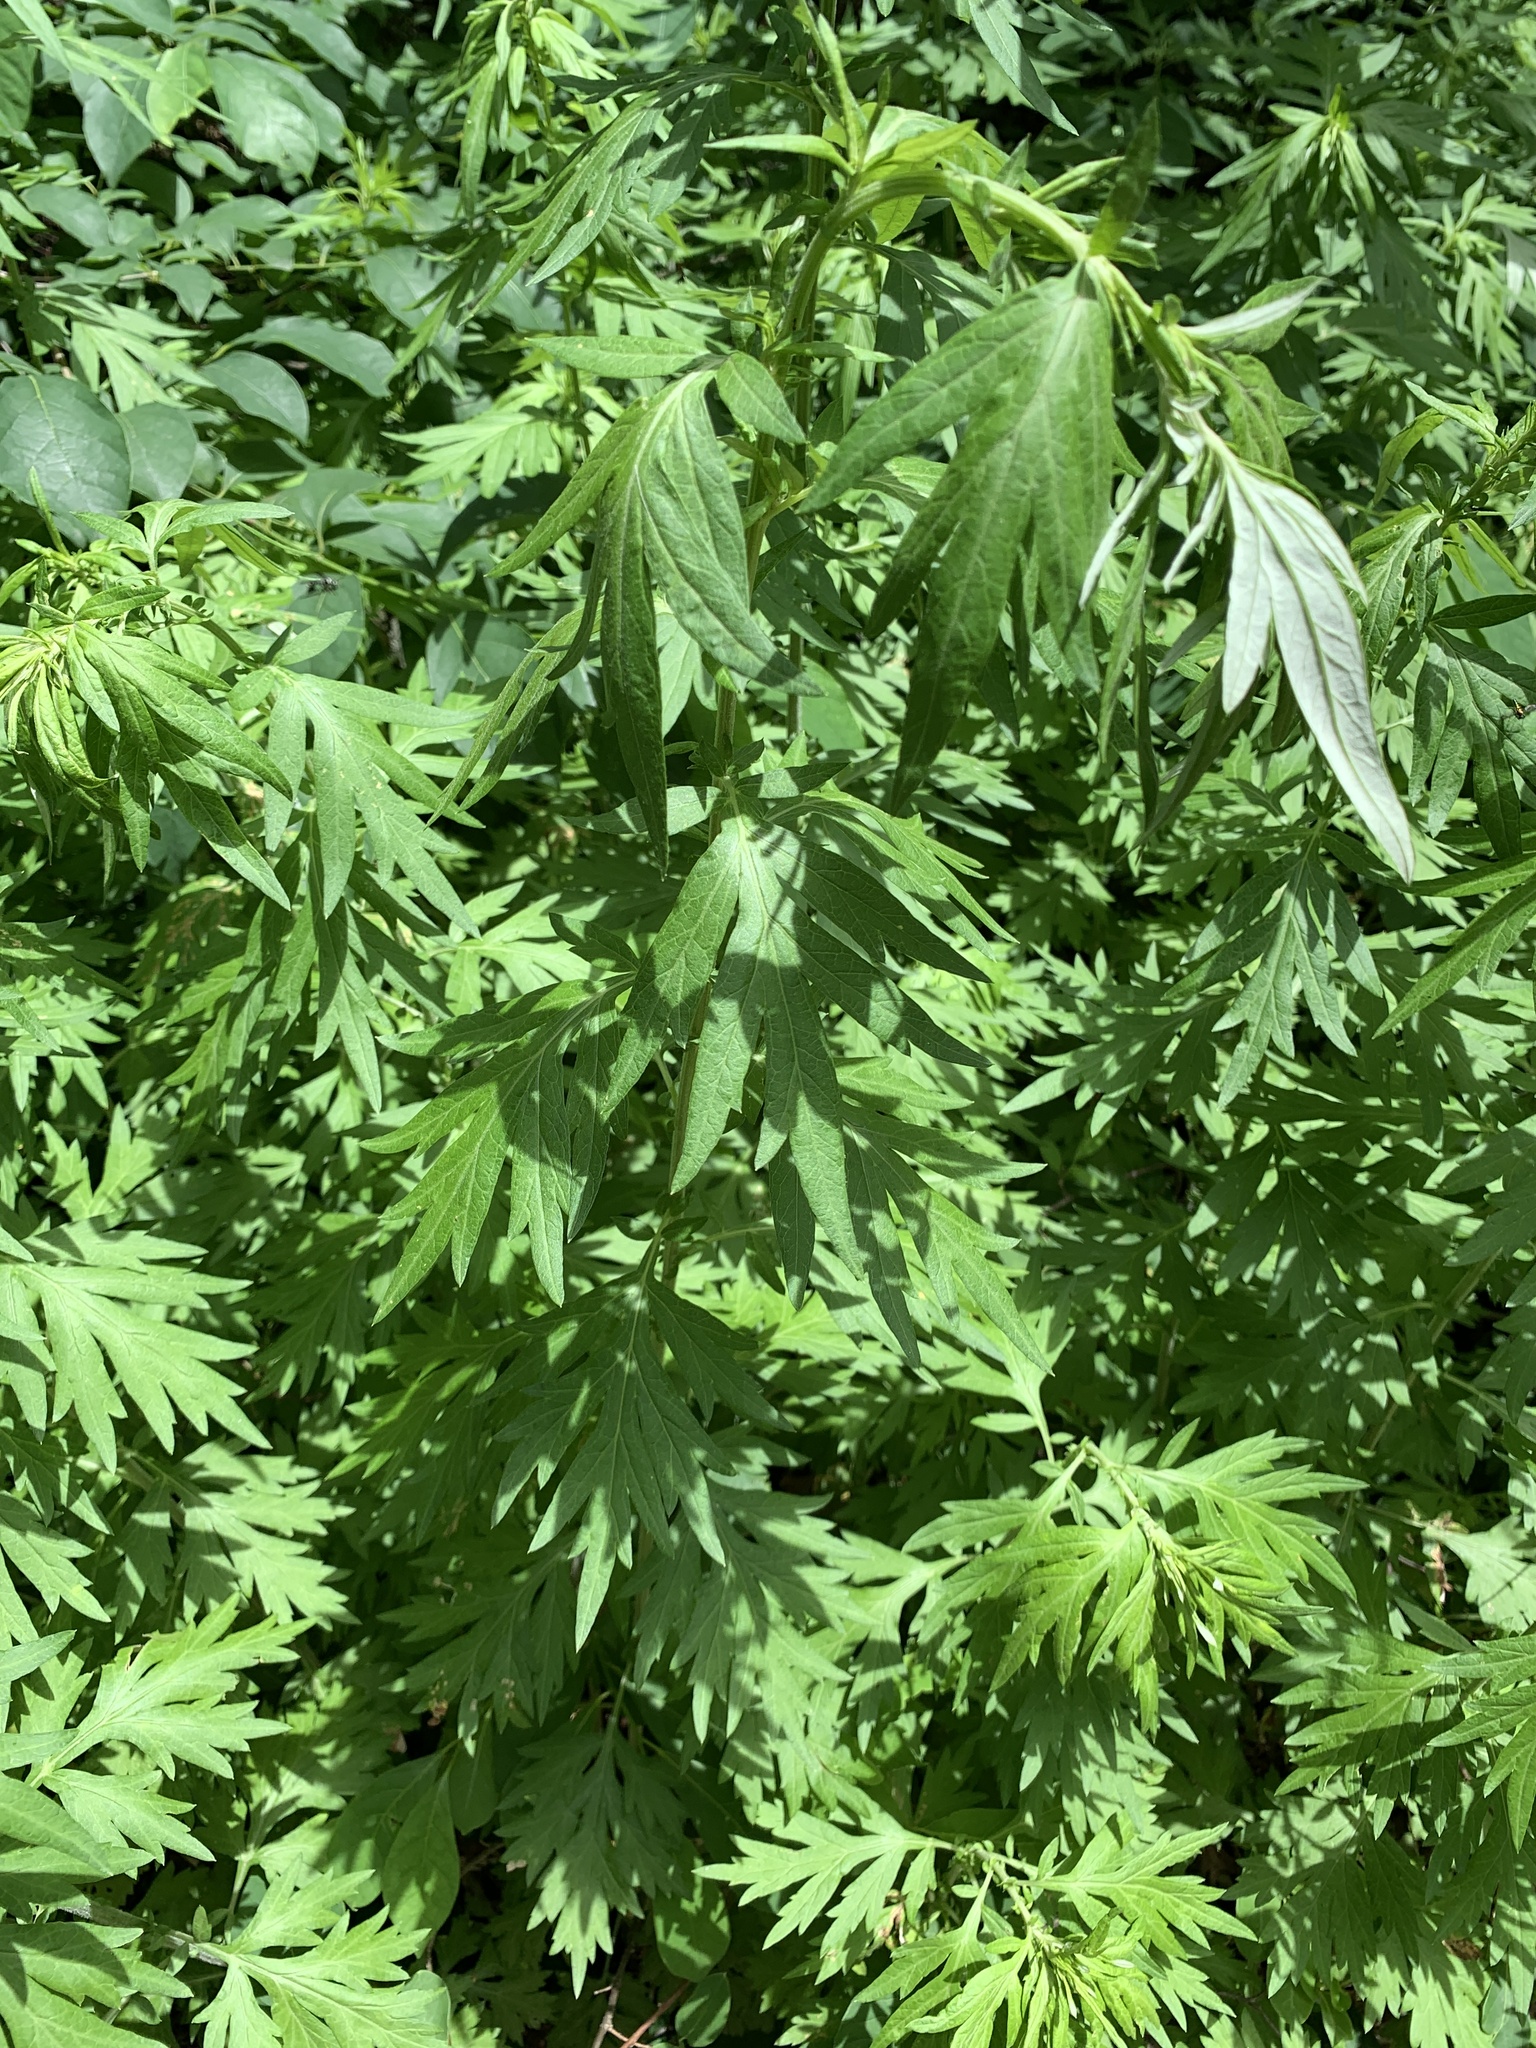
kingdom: Plantae
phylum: Tracheophyta
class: Magnoliopsida
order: Asterales
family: Asteraceae
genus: Artemisia
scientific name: Artemisia vulgaris
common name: Mugwort
